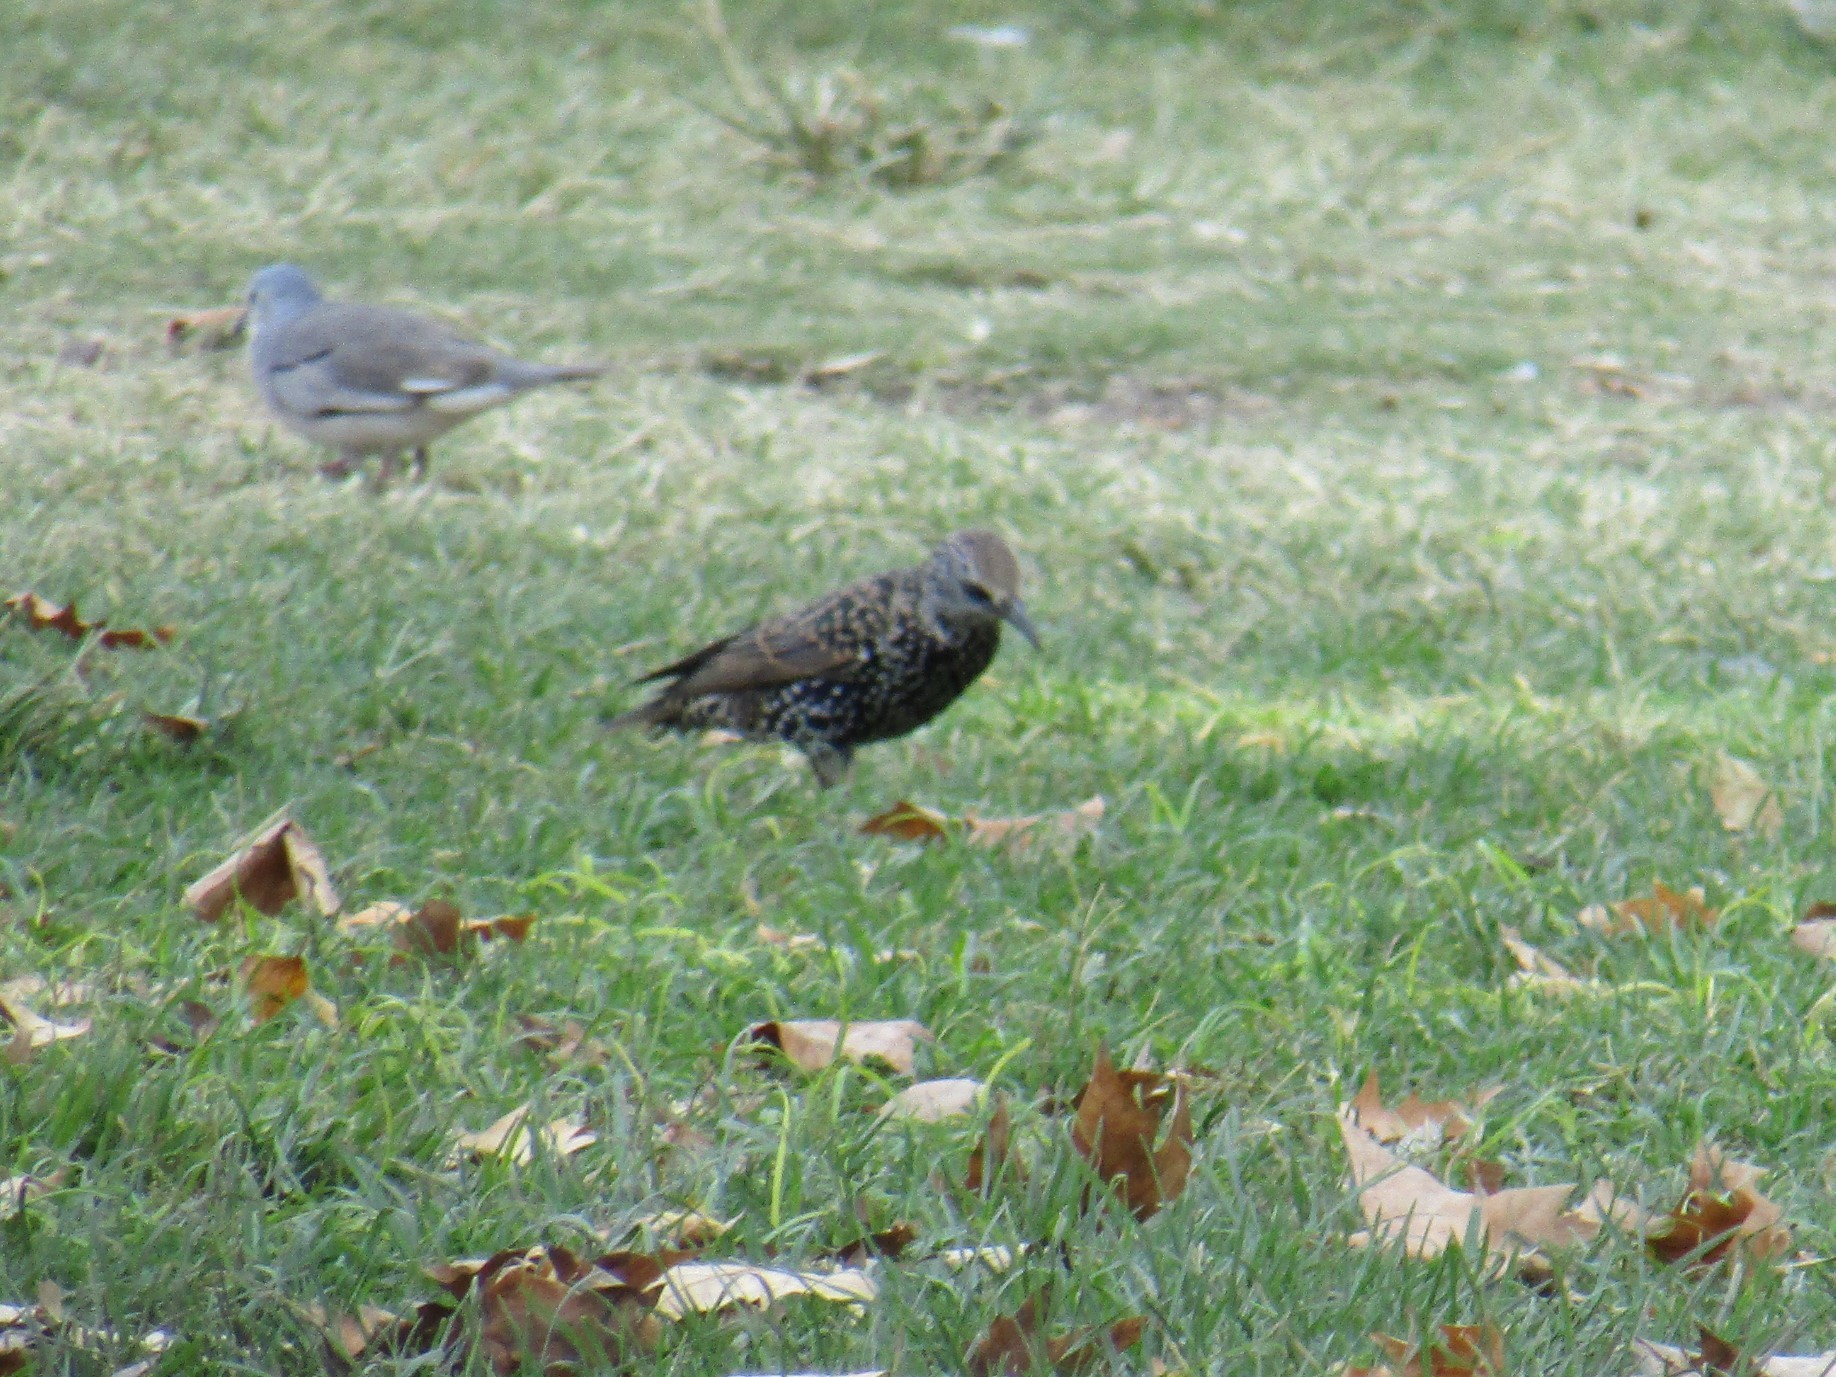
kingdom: Animalia
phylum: Chordata
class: Aves
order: Passeriformes
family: Sturnidae
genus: Sturnus
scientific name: Sturnus vulgaris
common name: Common starling
